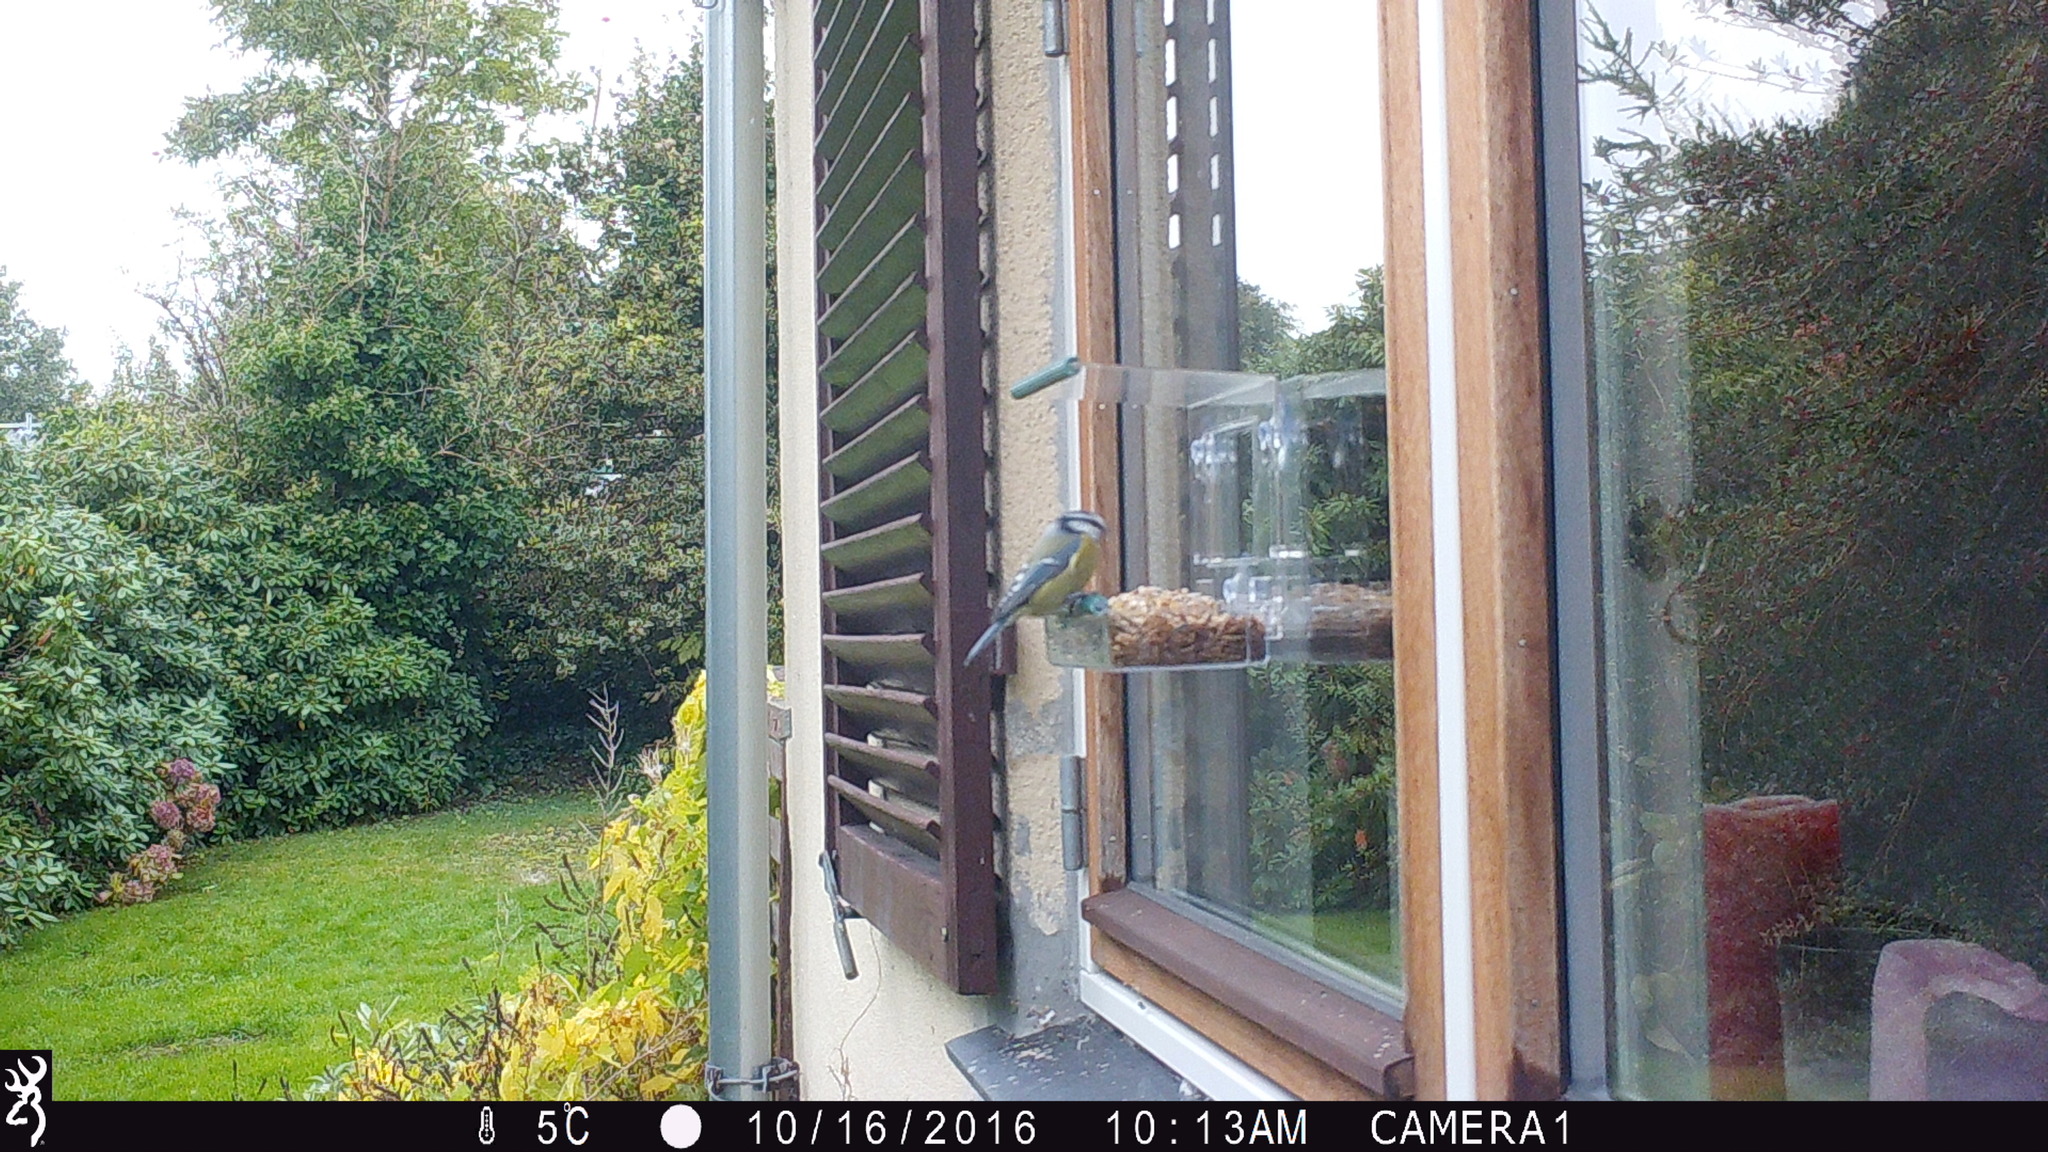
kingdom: Animalia
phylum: Chordata
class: Aves
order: Passeriformes
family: Paridae
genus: Cyanistes
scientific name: Cyanistes caeruleus
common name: Eurasian blue tit
